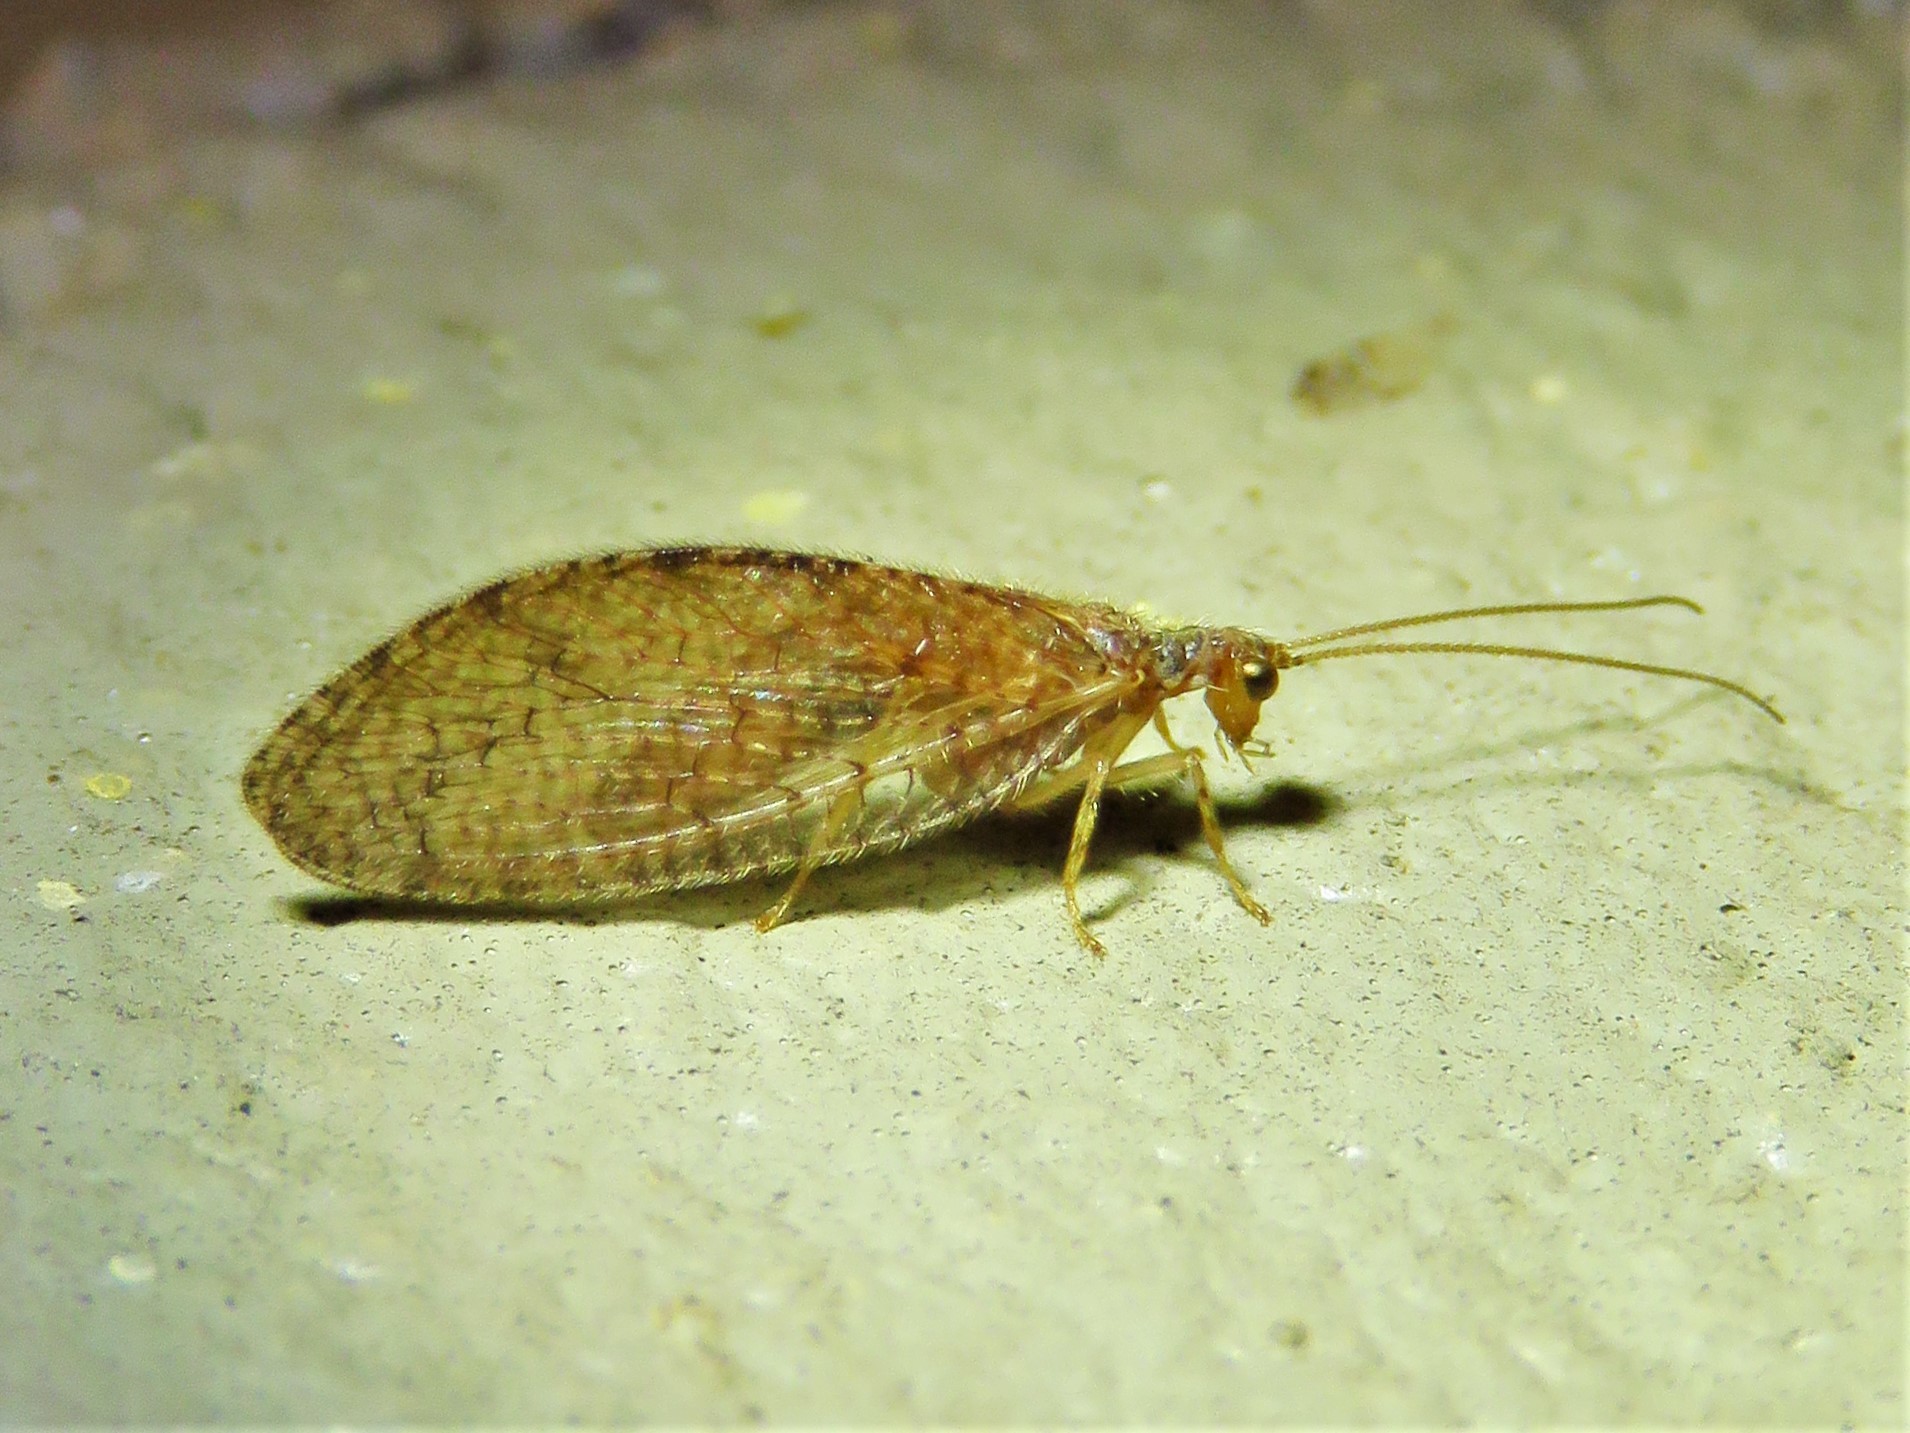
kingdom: Animalia
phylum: Arthropoda
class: Insecta
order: Neuroptera
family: Hemerobiidae
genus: Micromus
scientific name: Micromus posticus
